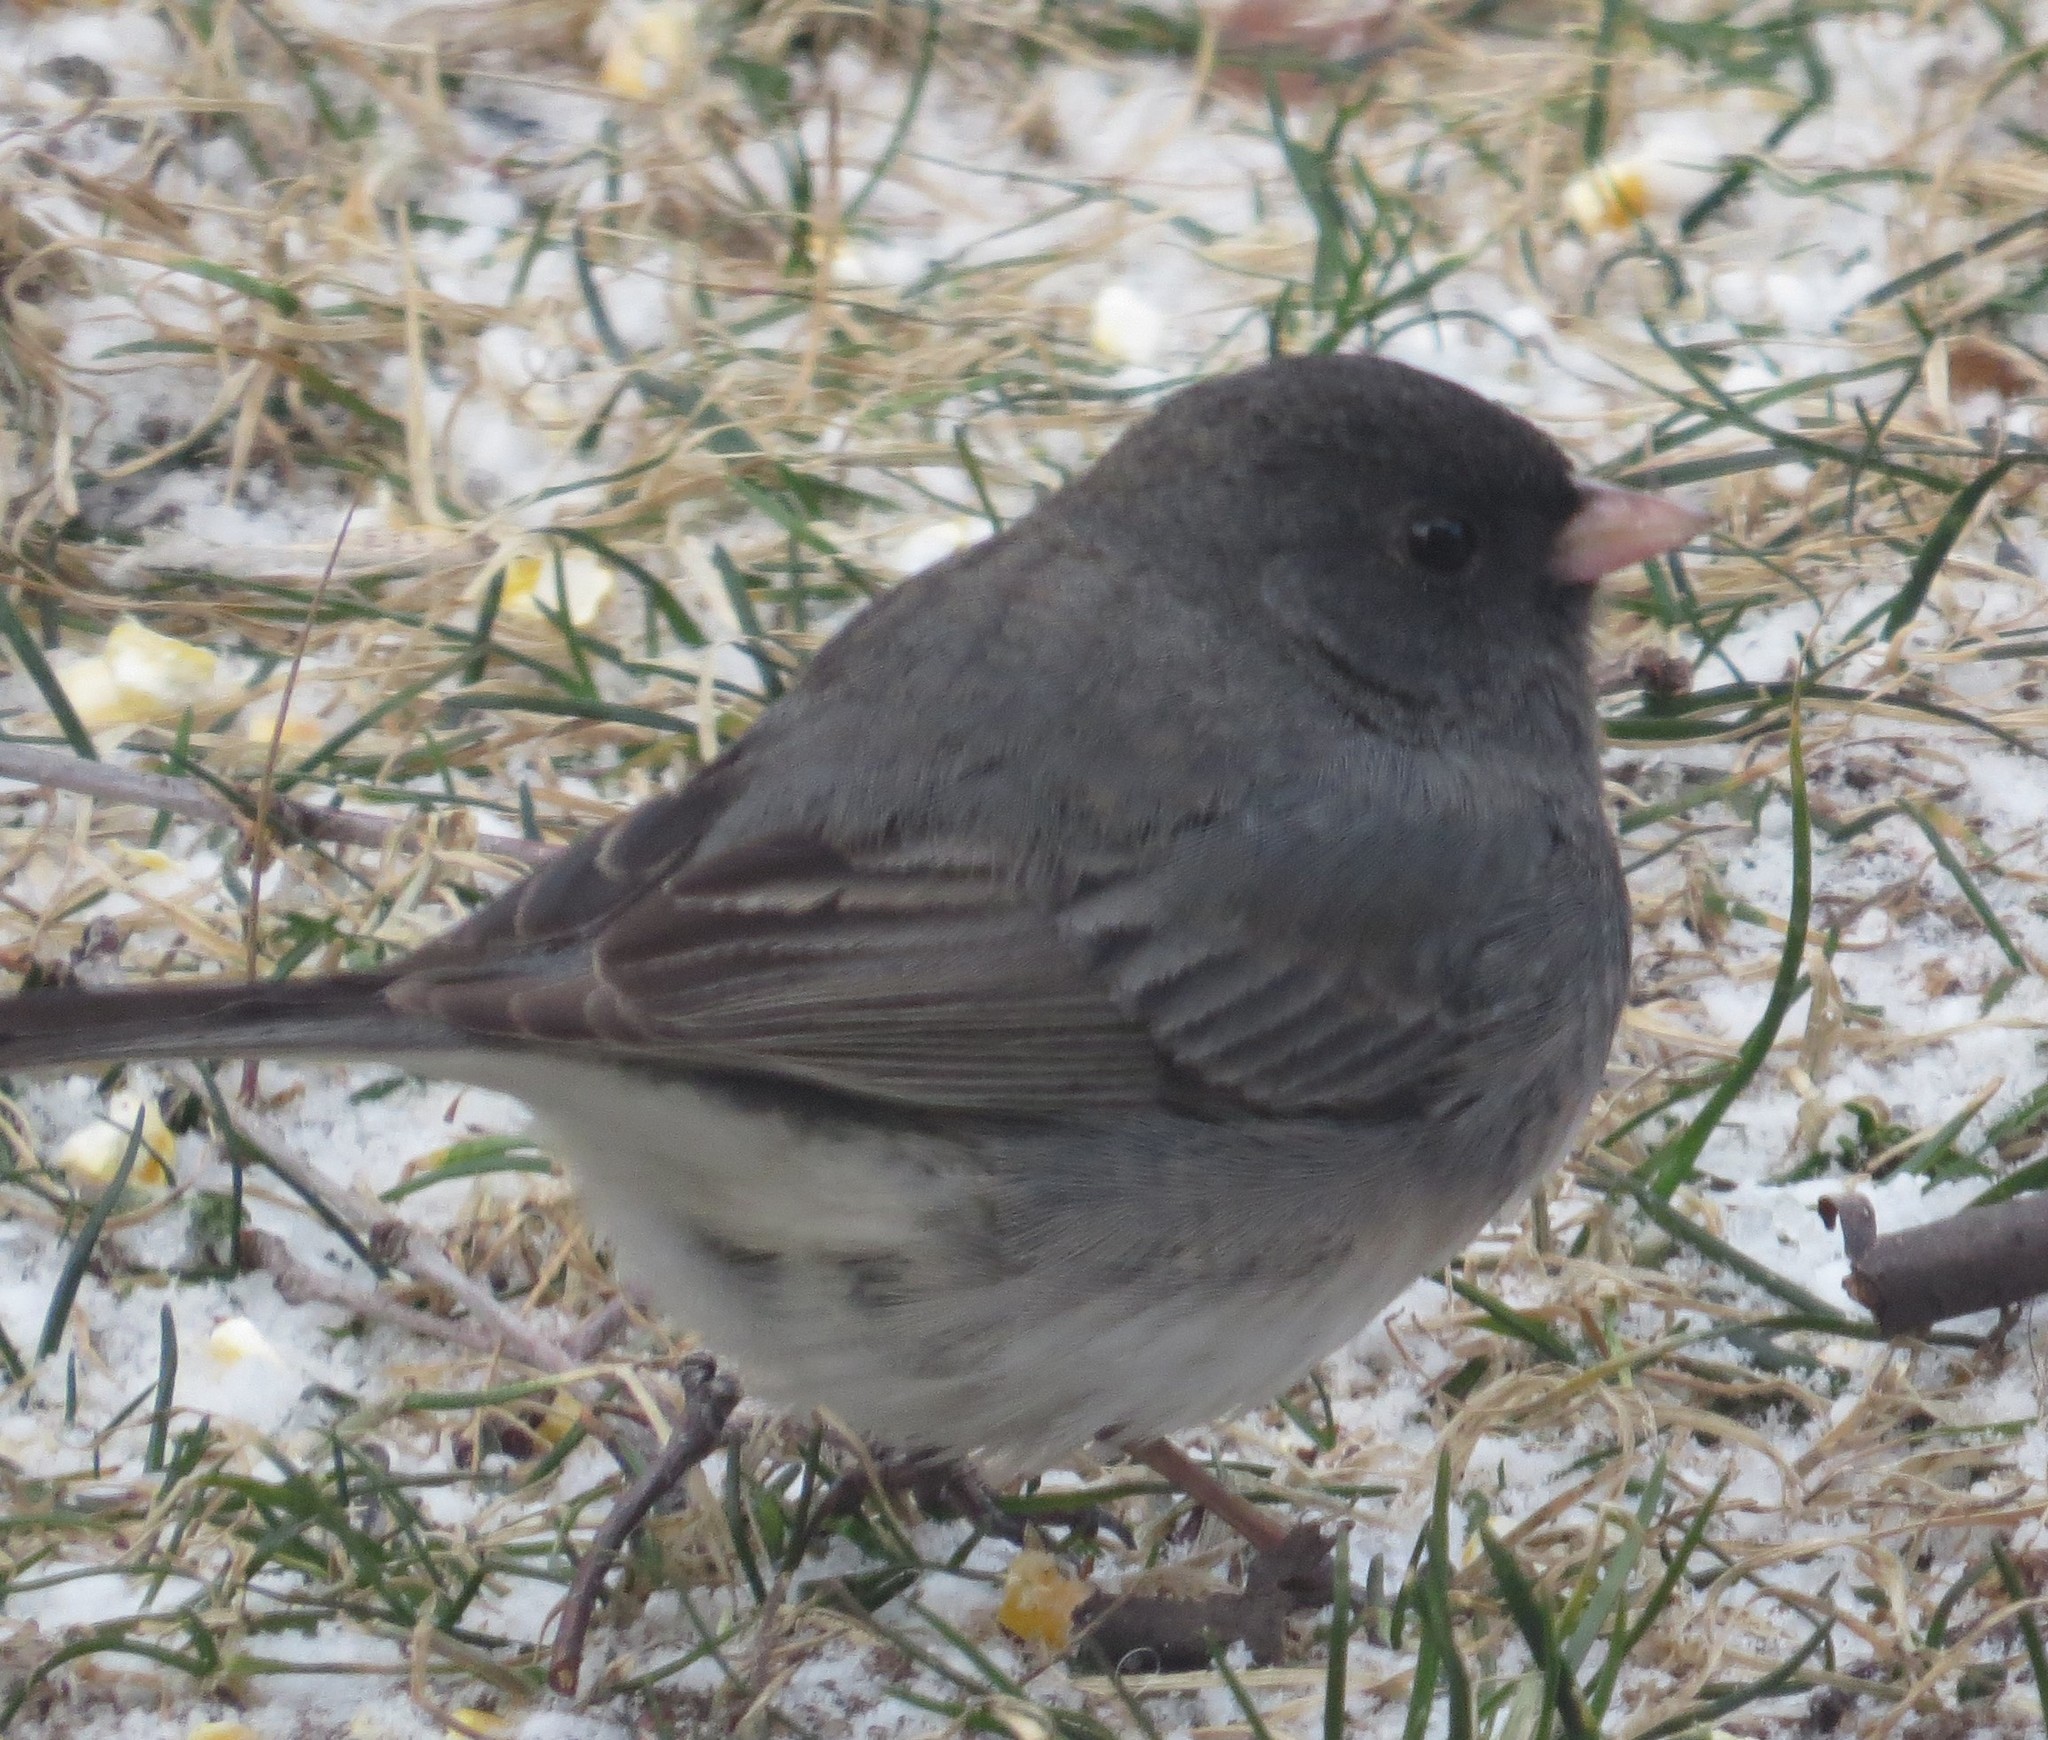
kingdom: Animalia
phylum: Chordata
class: Aves
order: Passeriformes
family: Passerellidae
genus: Junco
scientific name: Junco hyemalis
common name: Dark-eyed junco
